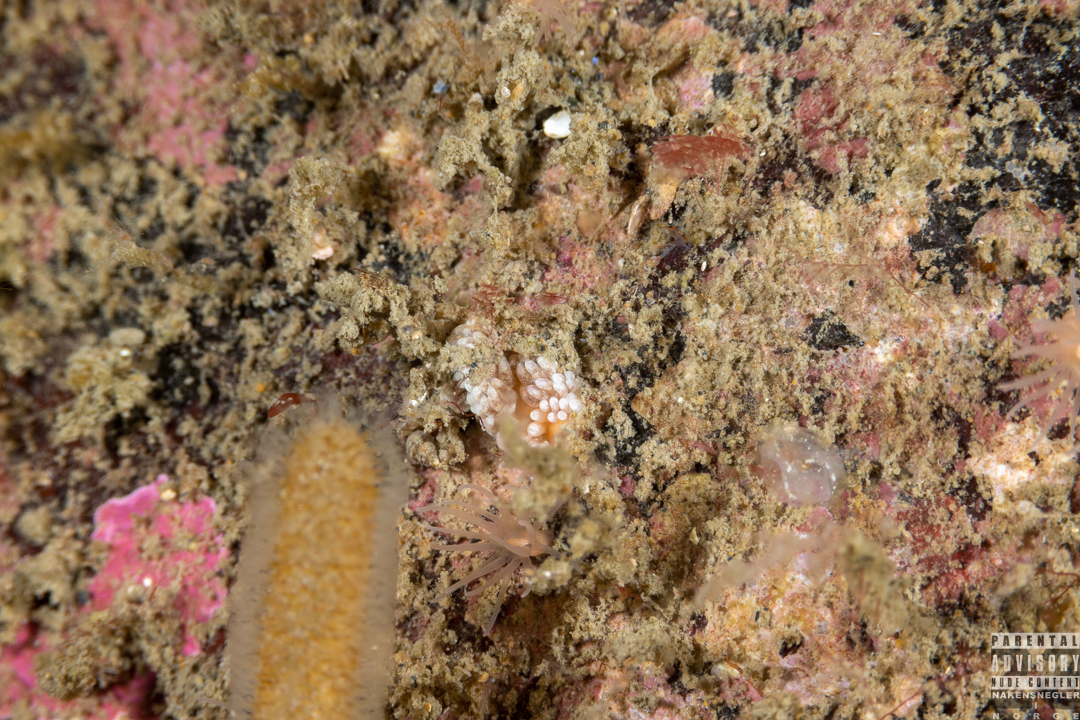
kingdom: Animalia
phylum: Mollusca
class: Gastropoda
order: Nudibranchia
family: Aeolidiidae
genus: Aeolidiella
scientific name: Aeolidiella glauca
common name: Orange-brown aeolid
